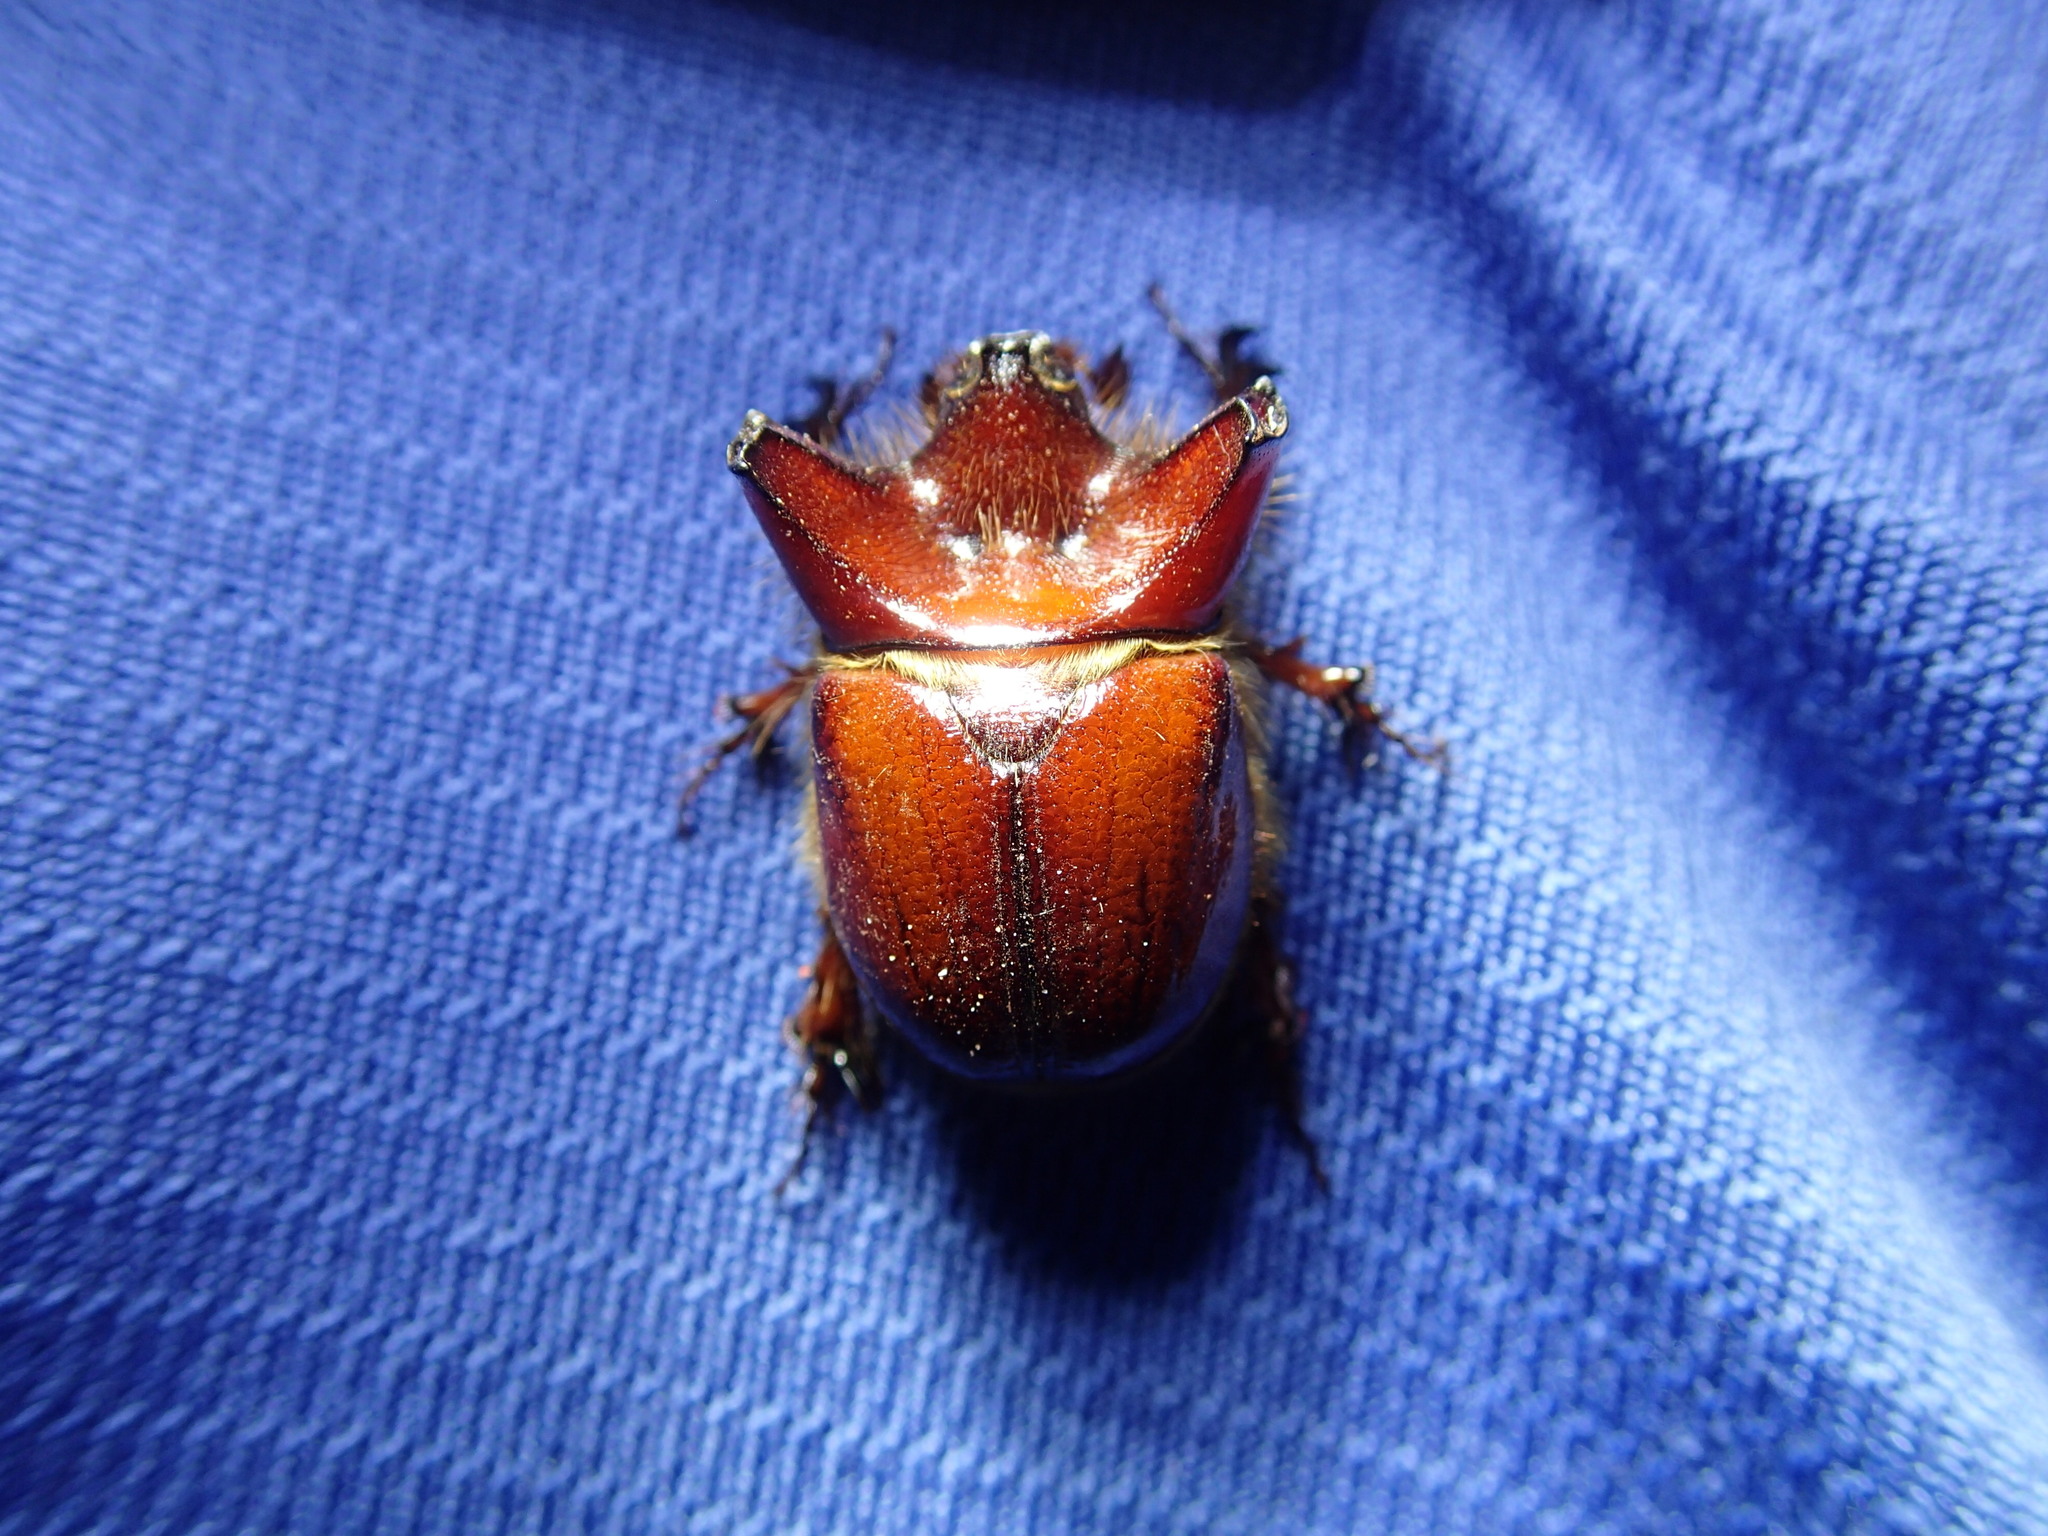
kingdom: Animalia
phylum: Arthropoda
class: Insecta
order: Coleoptera
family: Scarabaeidae
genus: Pseudoryctes
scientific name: Pseudoryctes etunus
